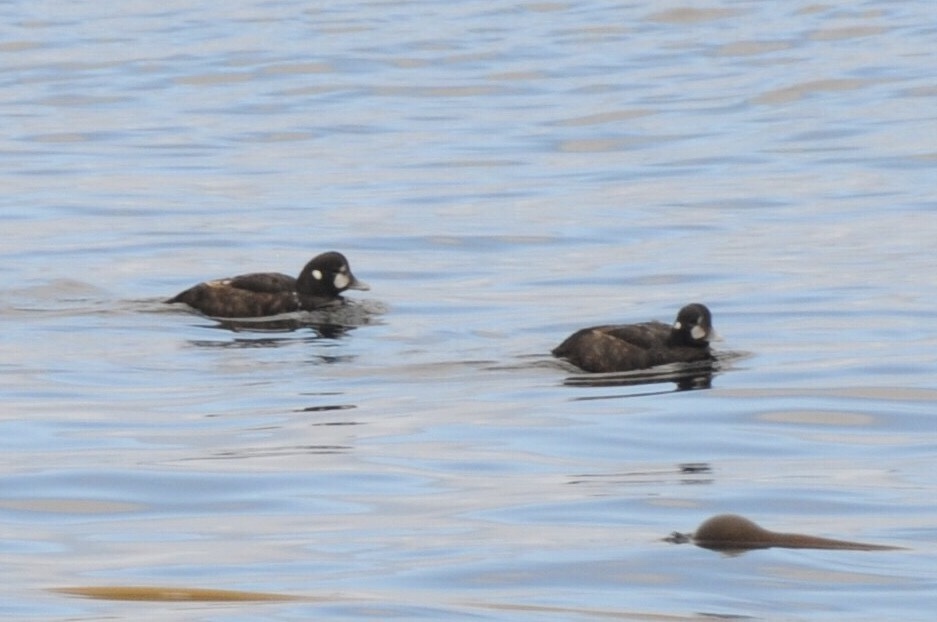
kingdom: Animalia
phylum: Chordata
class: Aves
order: Anseriformes
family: Anatidae
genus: Histrionicus
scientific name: Histrionicus histrionicus
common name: Harlequin duck
